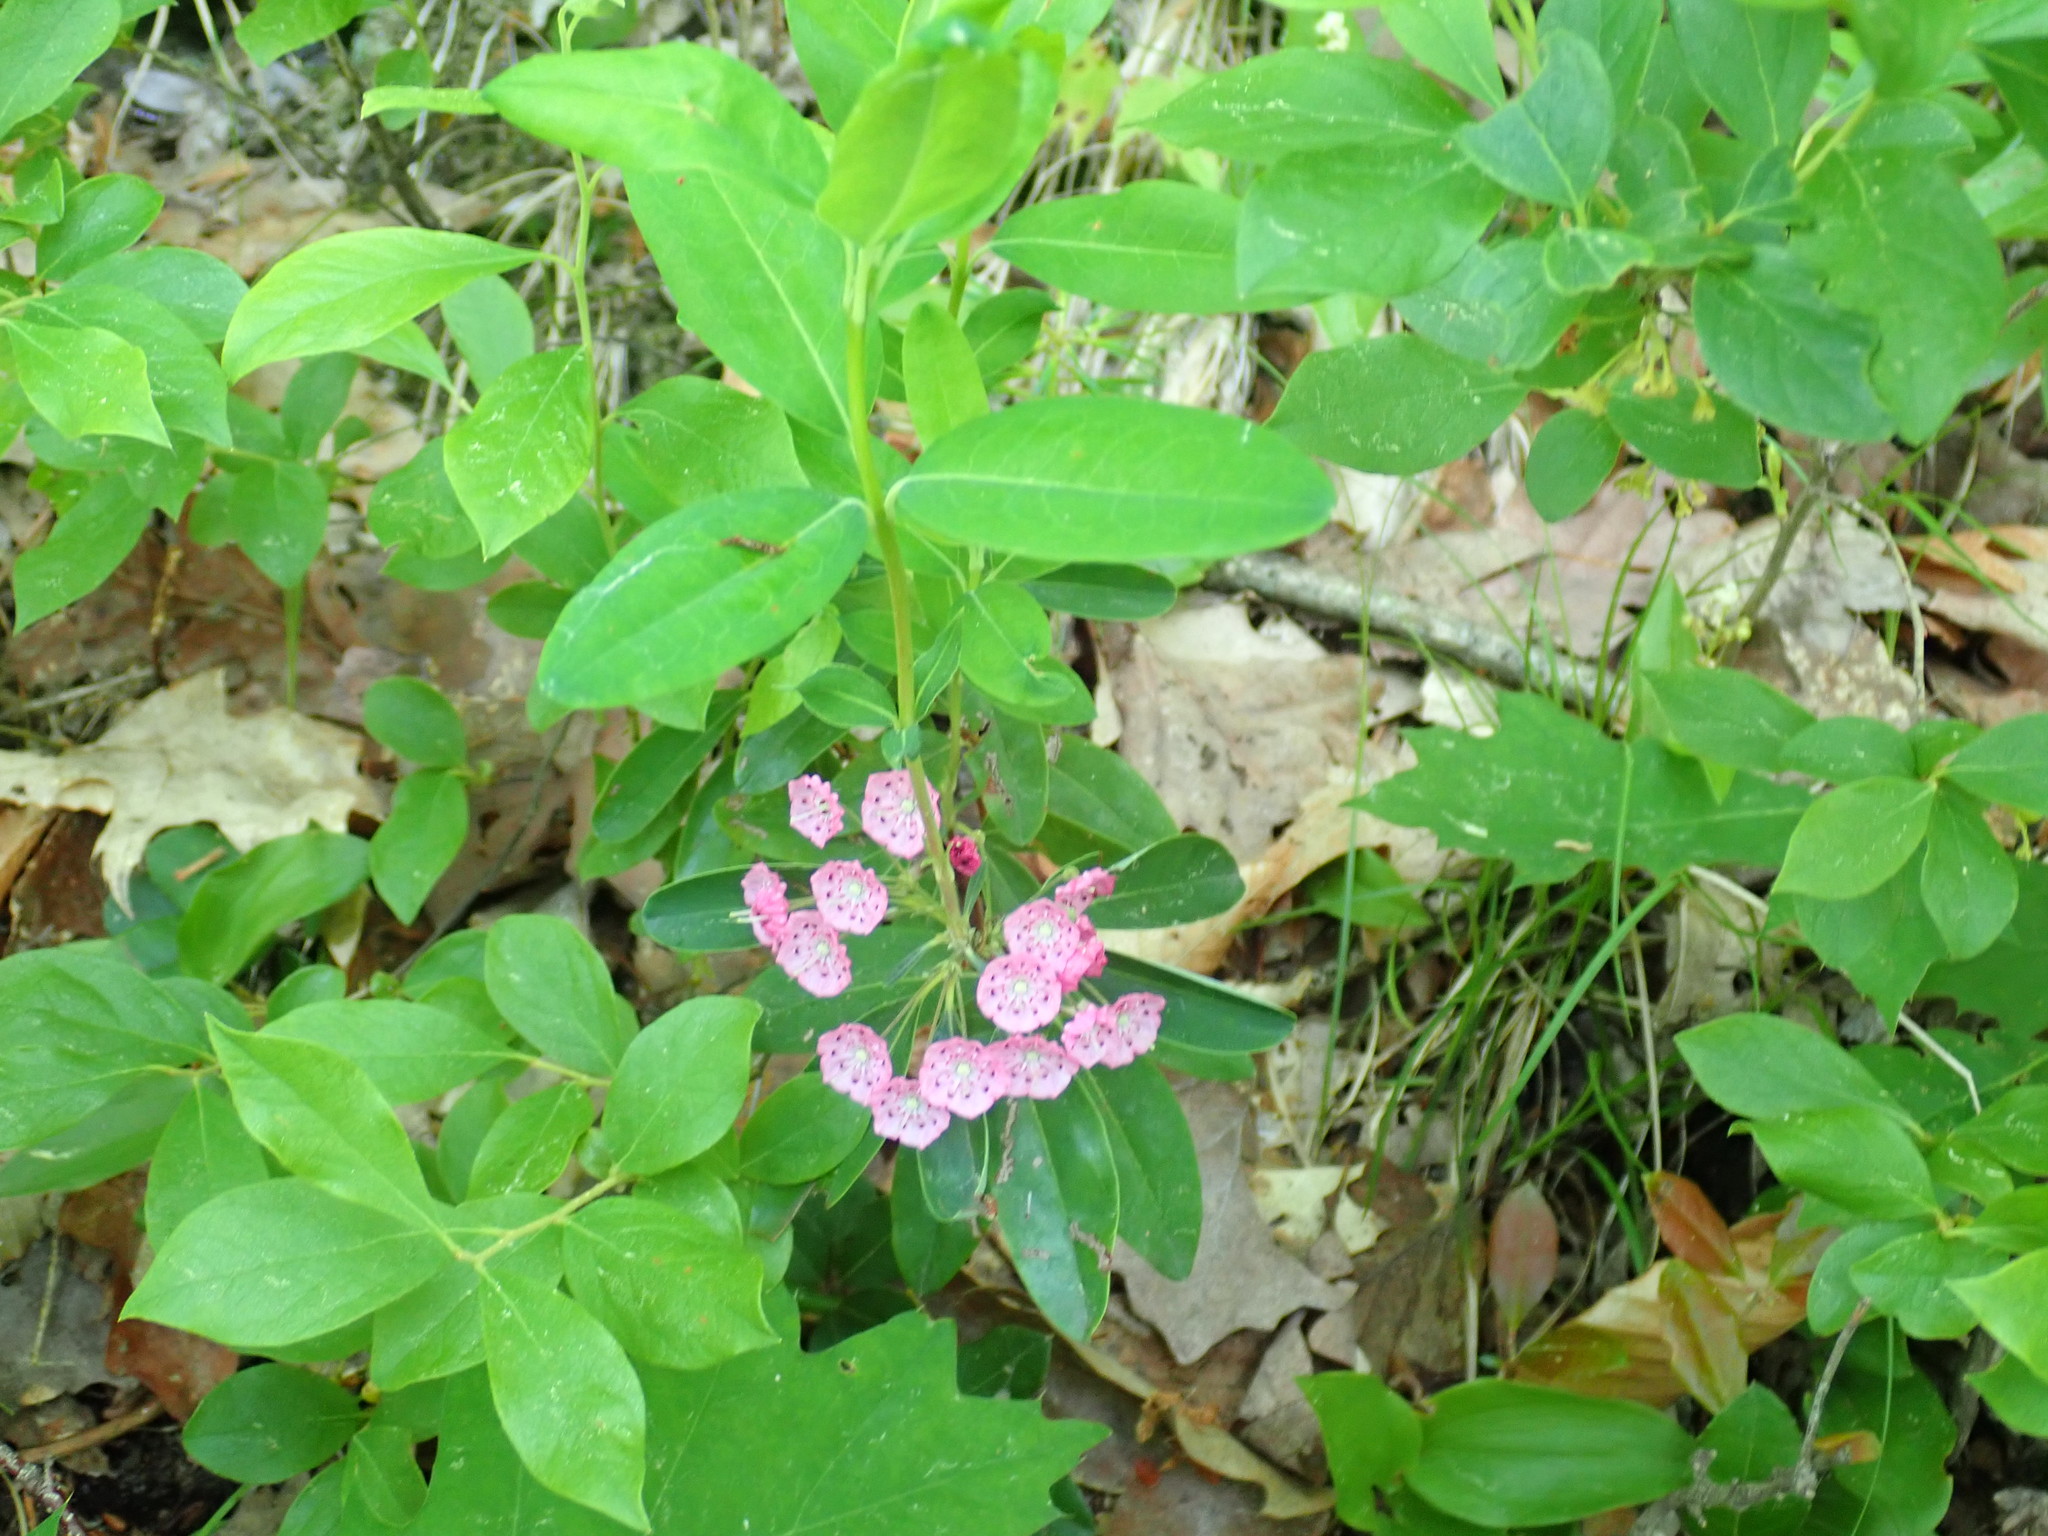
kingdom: Plantae
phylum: Tracheophyta
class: Magnoliopsida
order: Ericales
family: Ericaceae
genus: Kalmia
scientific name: Kalmia angustifolia
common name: Sheep-laurel
